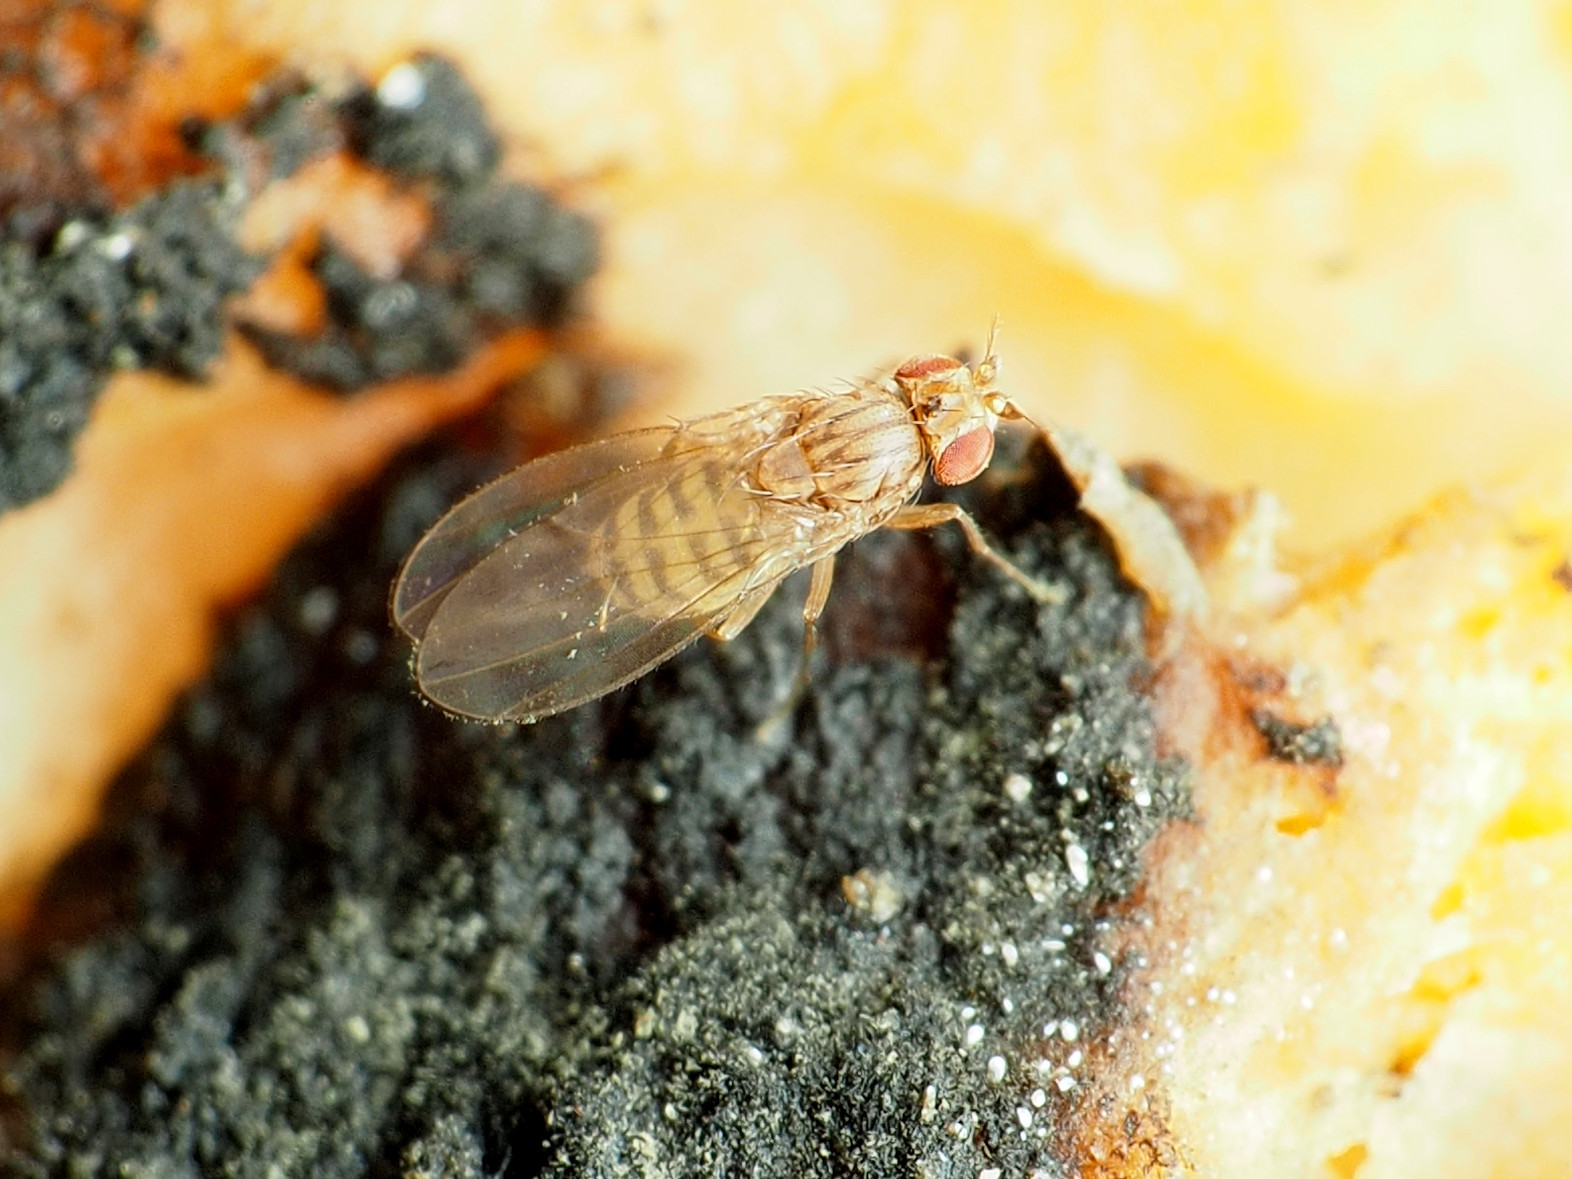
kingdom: Animalia
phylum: Arthropoda
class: Insecta
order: Diptera
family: Drosophilidae
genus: Drosophila
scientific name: Drosophila busckii
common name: Pomace fly
